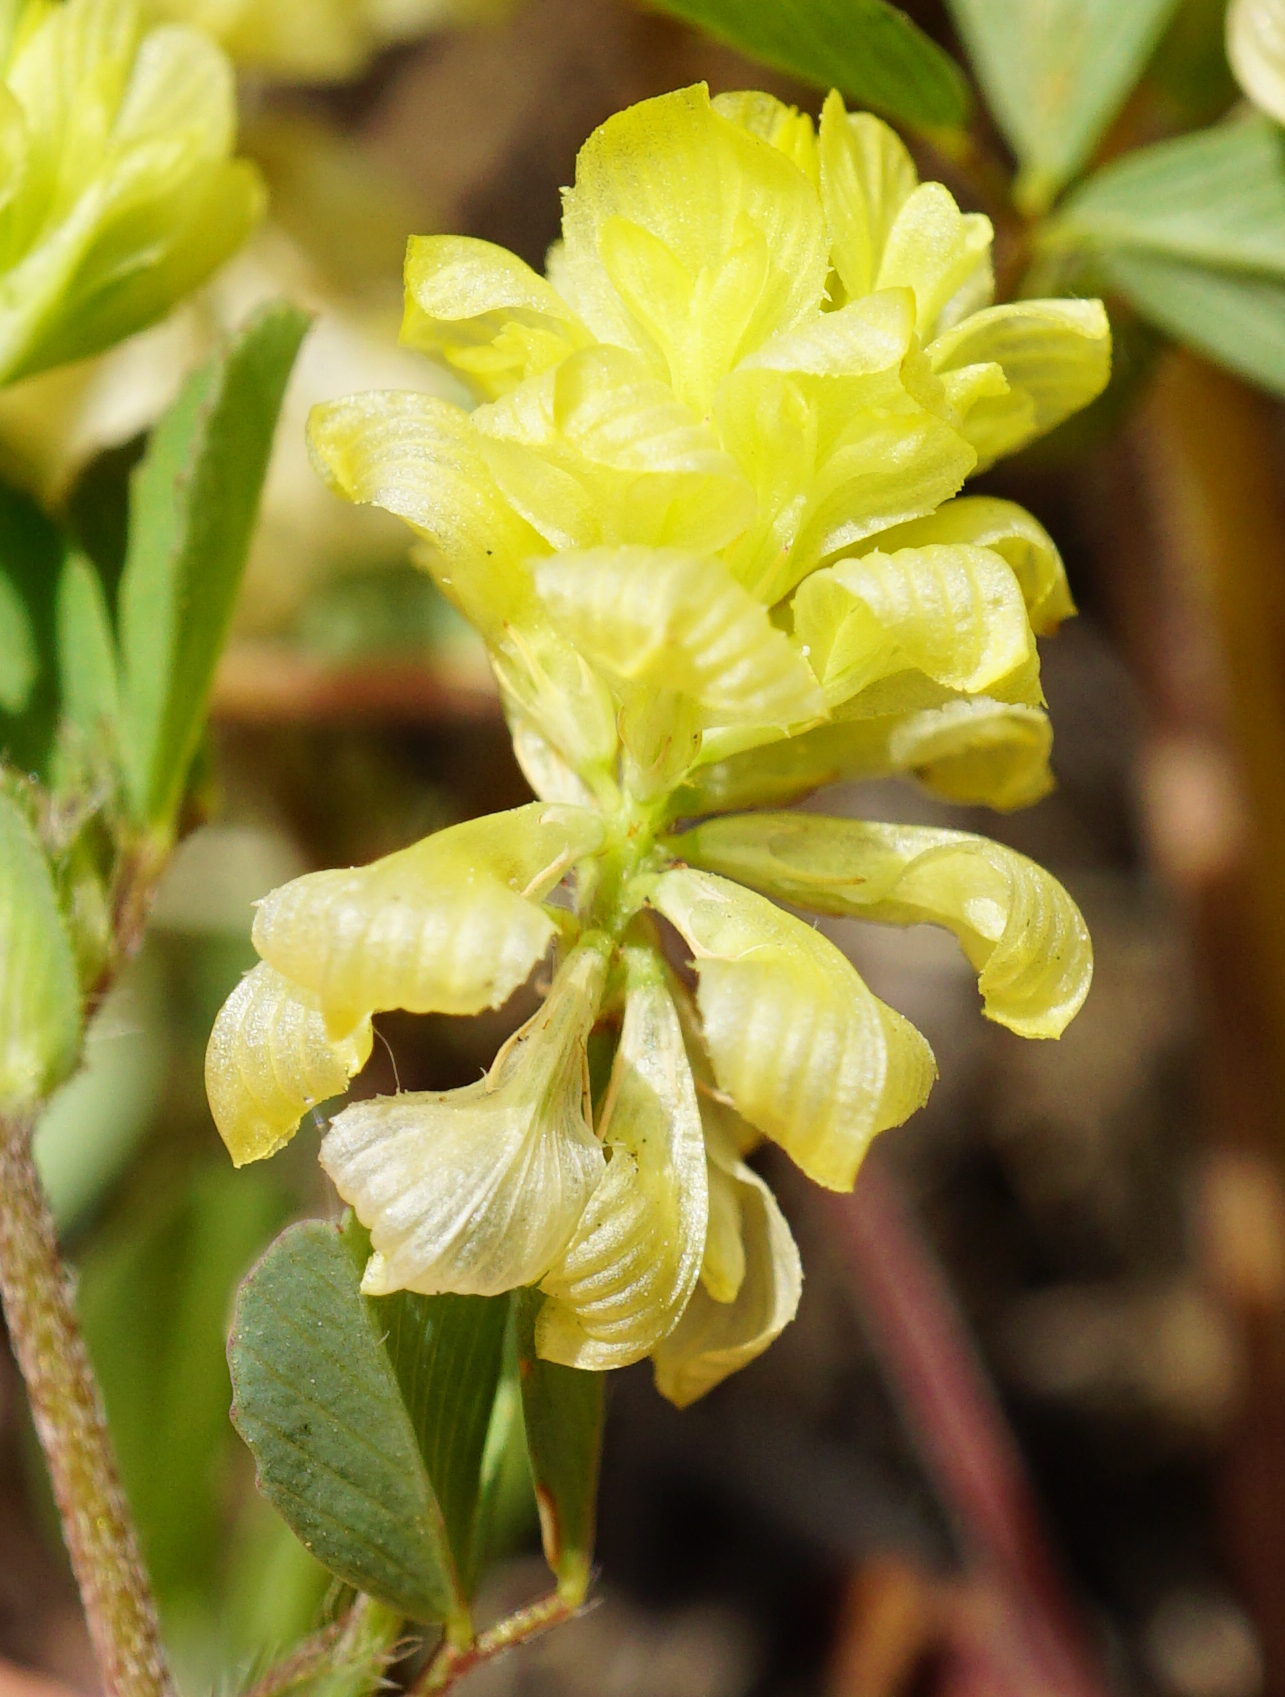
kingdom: Plantae
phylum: Tracheophyta
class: Magnoliopsida
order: Fabales
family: Fabaceae
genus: Trifolium
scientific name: Trifolium campestre
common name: Field clover
